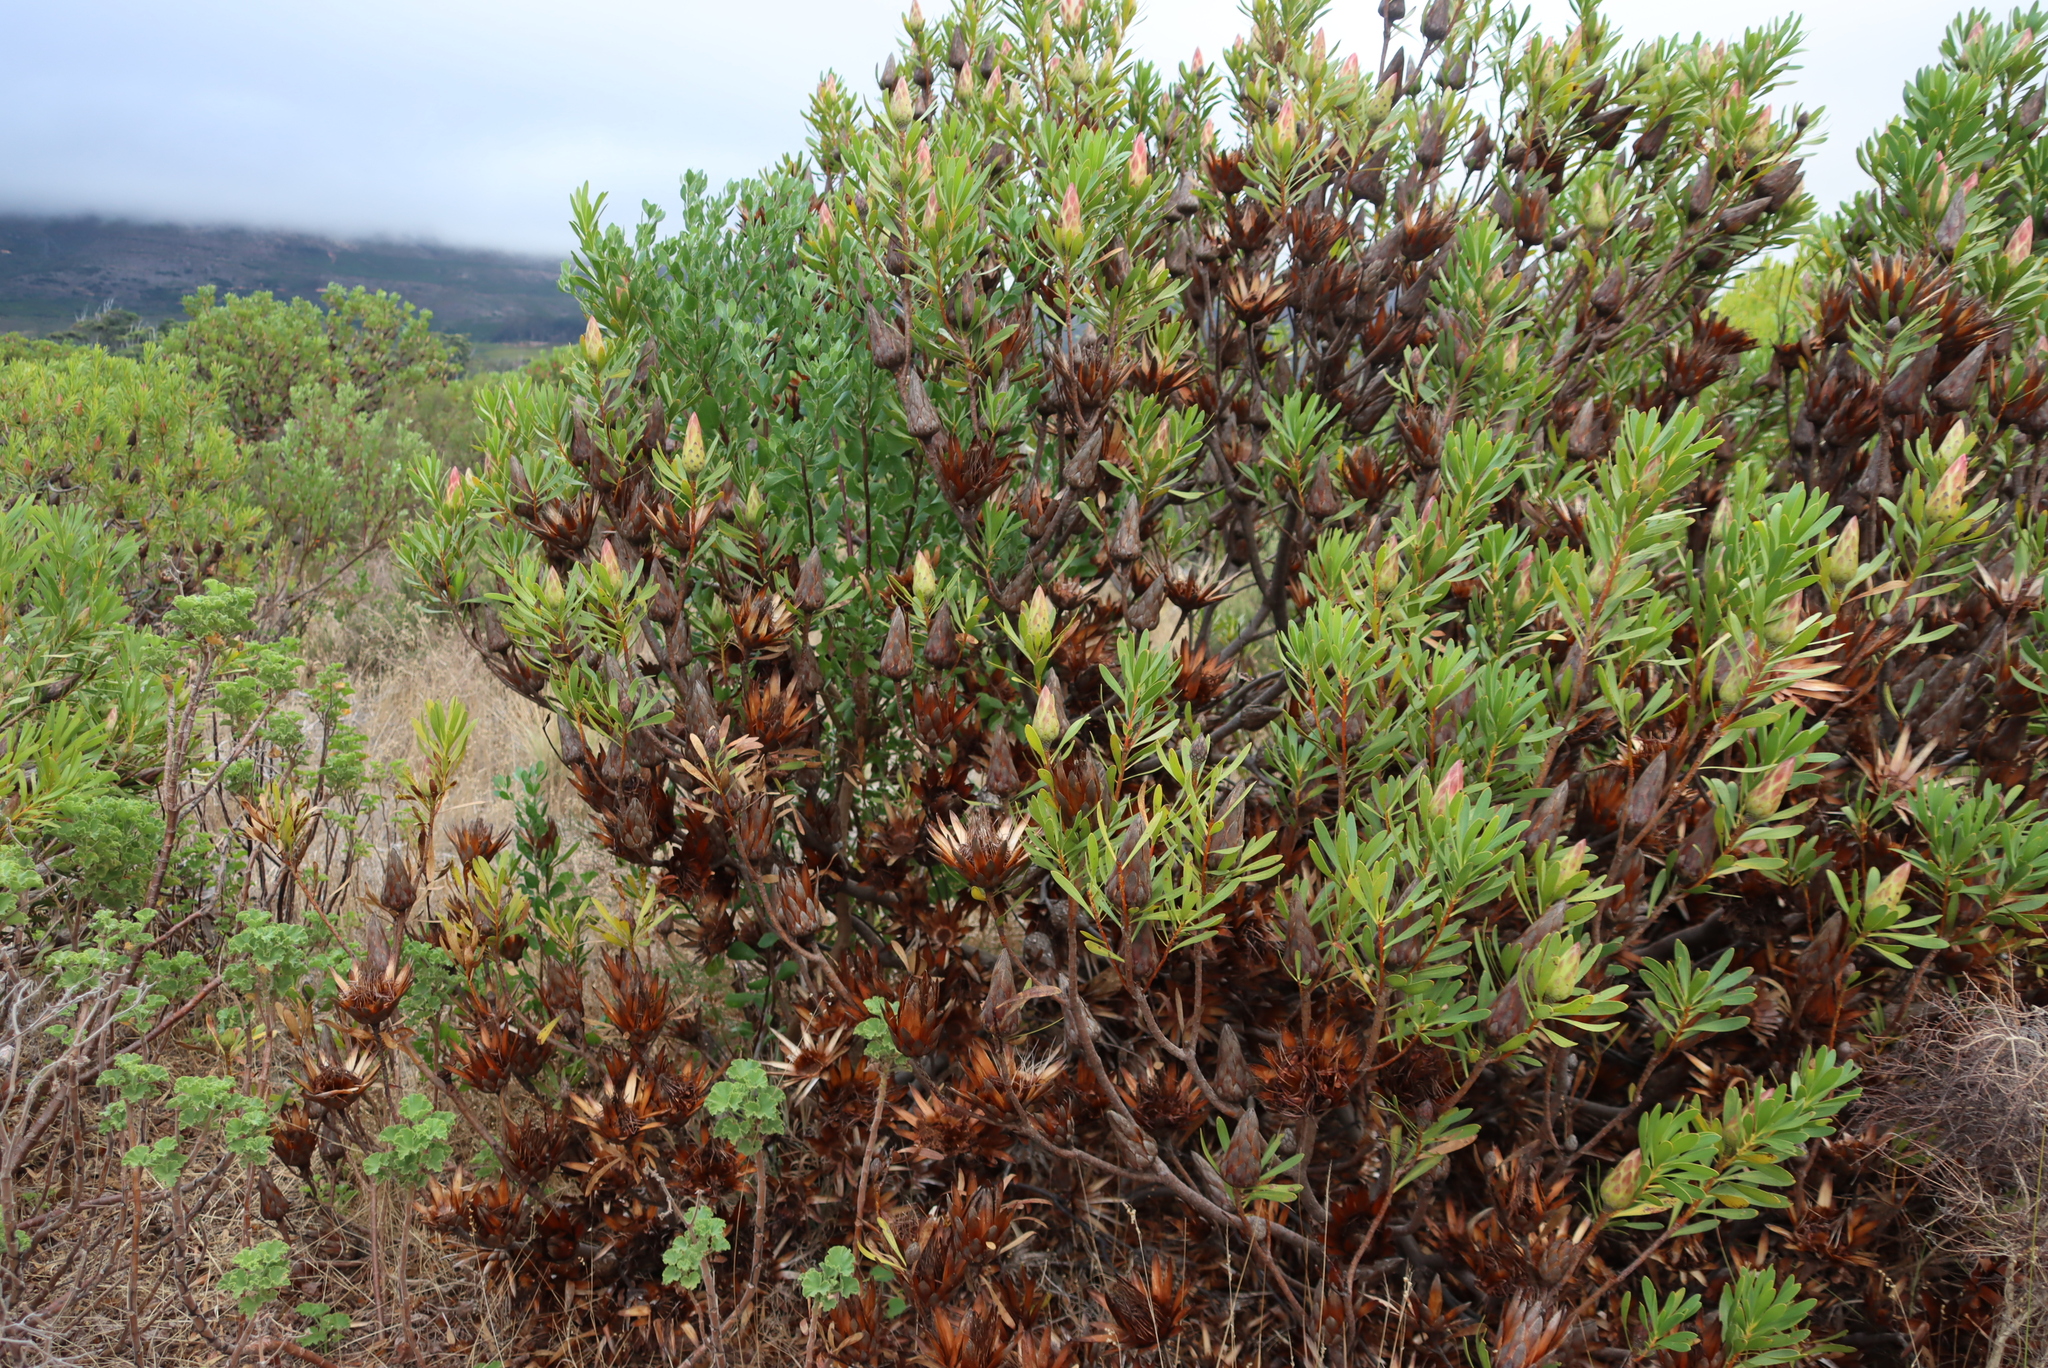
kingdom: Plantae
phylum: Tracheophyta
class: Magnoliopsida
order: Proteales
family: Proteaceae
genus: Protea
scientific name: Protea repens
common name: Sugarbush
